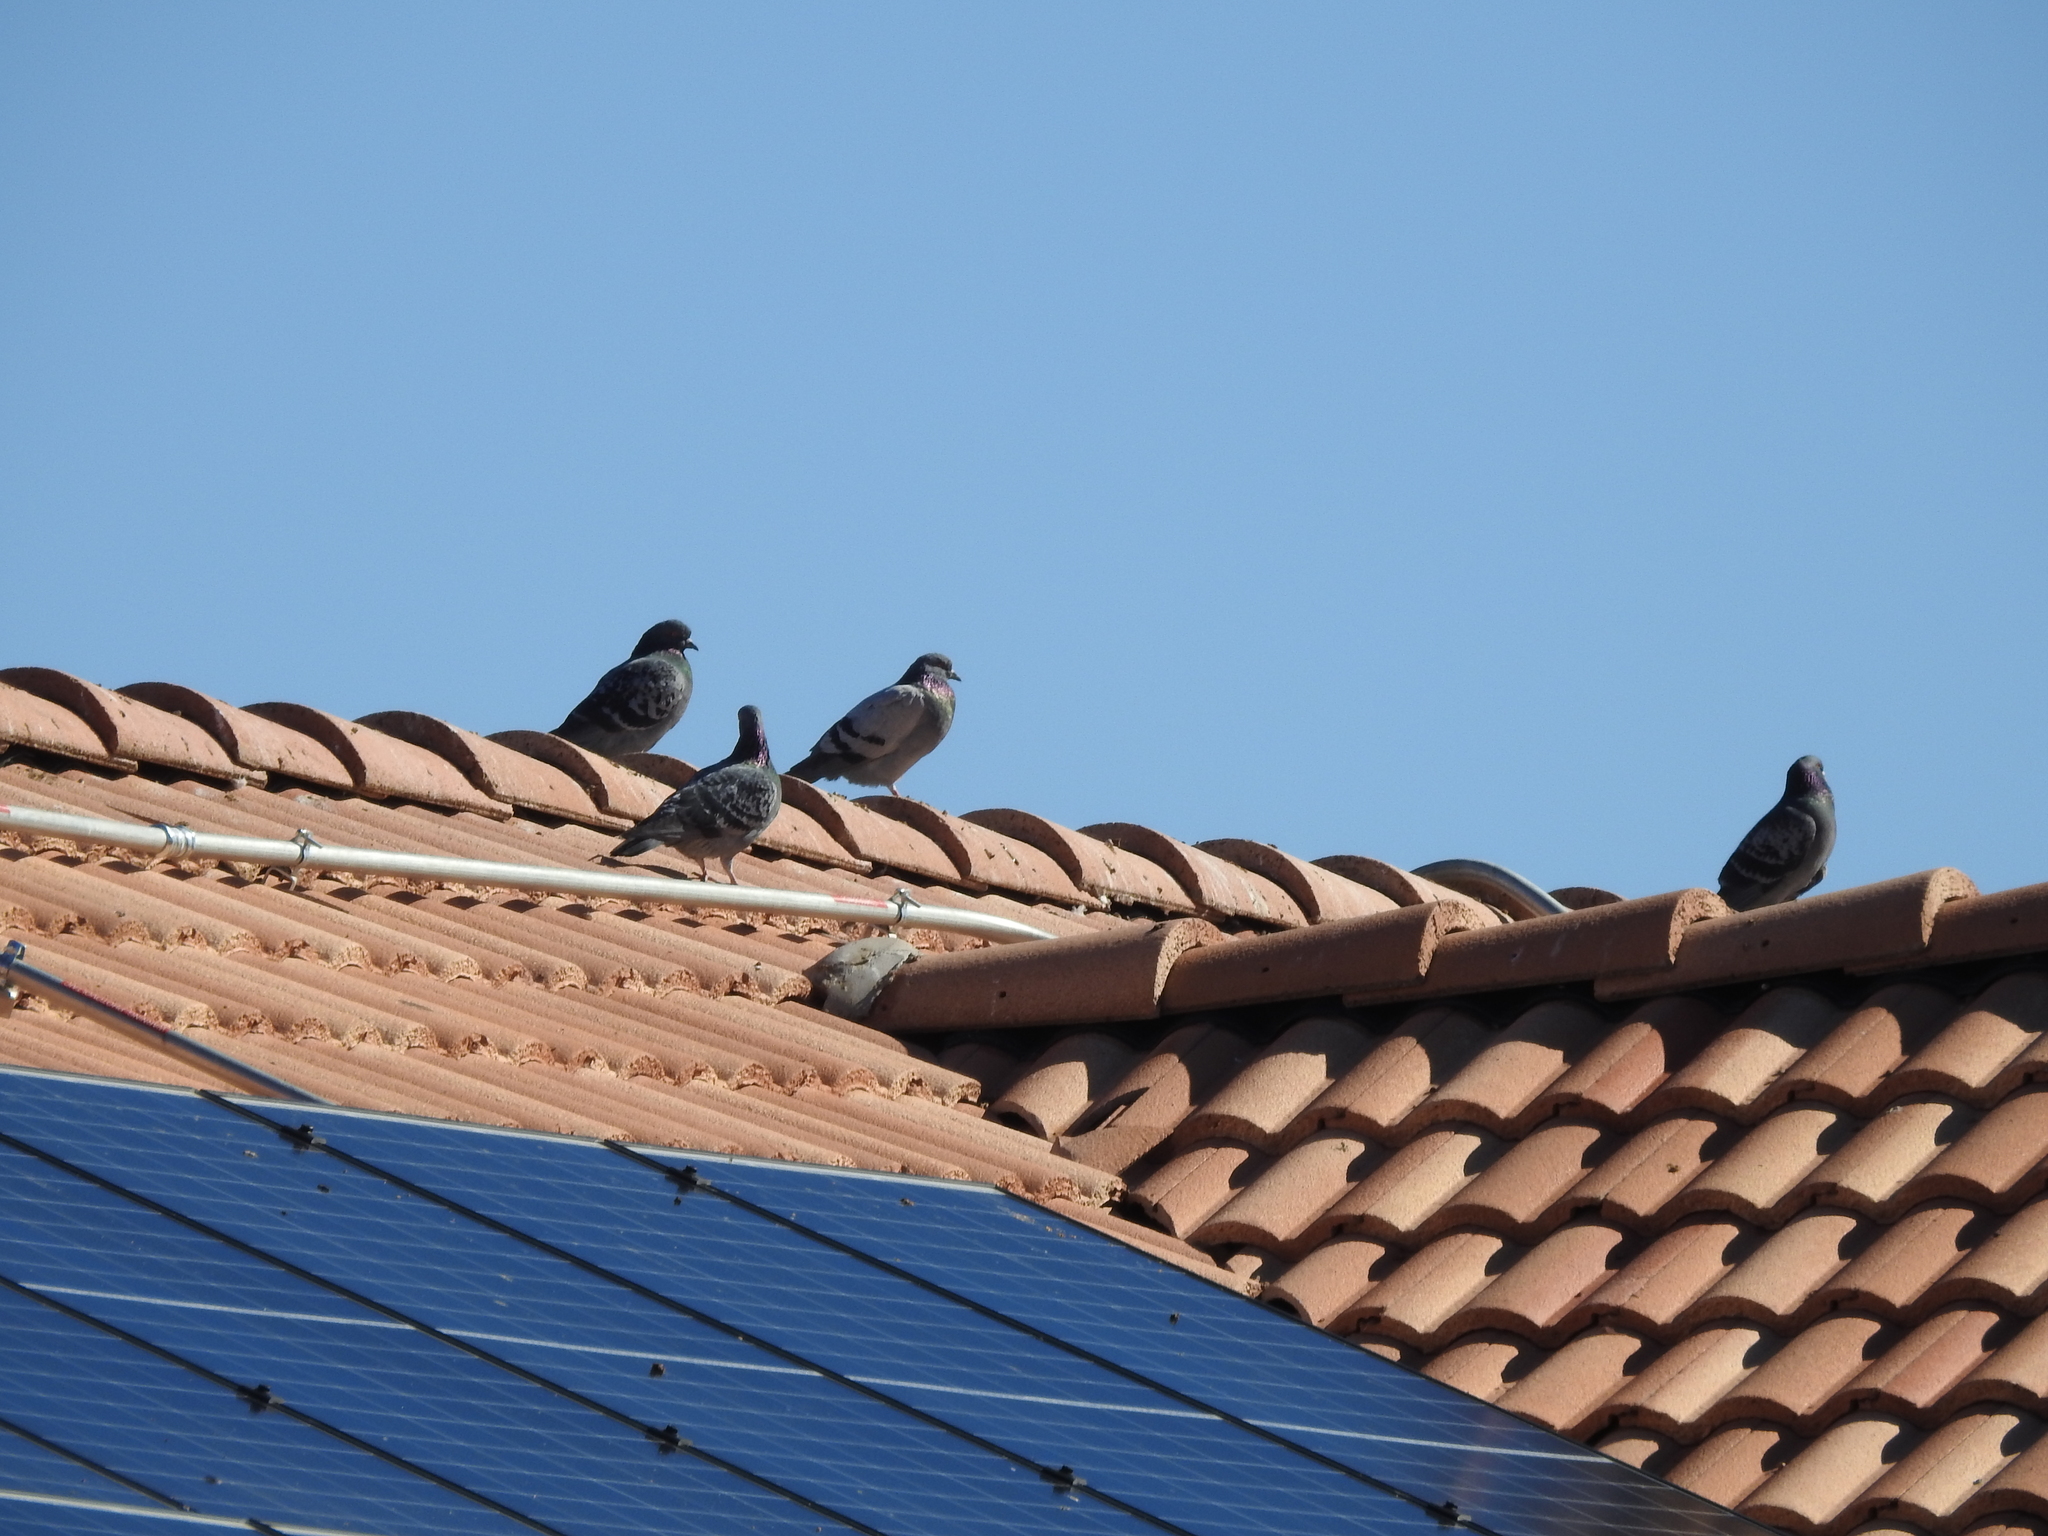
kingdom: Animalia
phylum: Chordata
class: Aves
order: Columbiformes
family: Columbidae
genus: Columba
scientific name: Columba livia
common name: Rock pigeon
